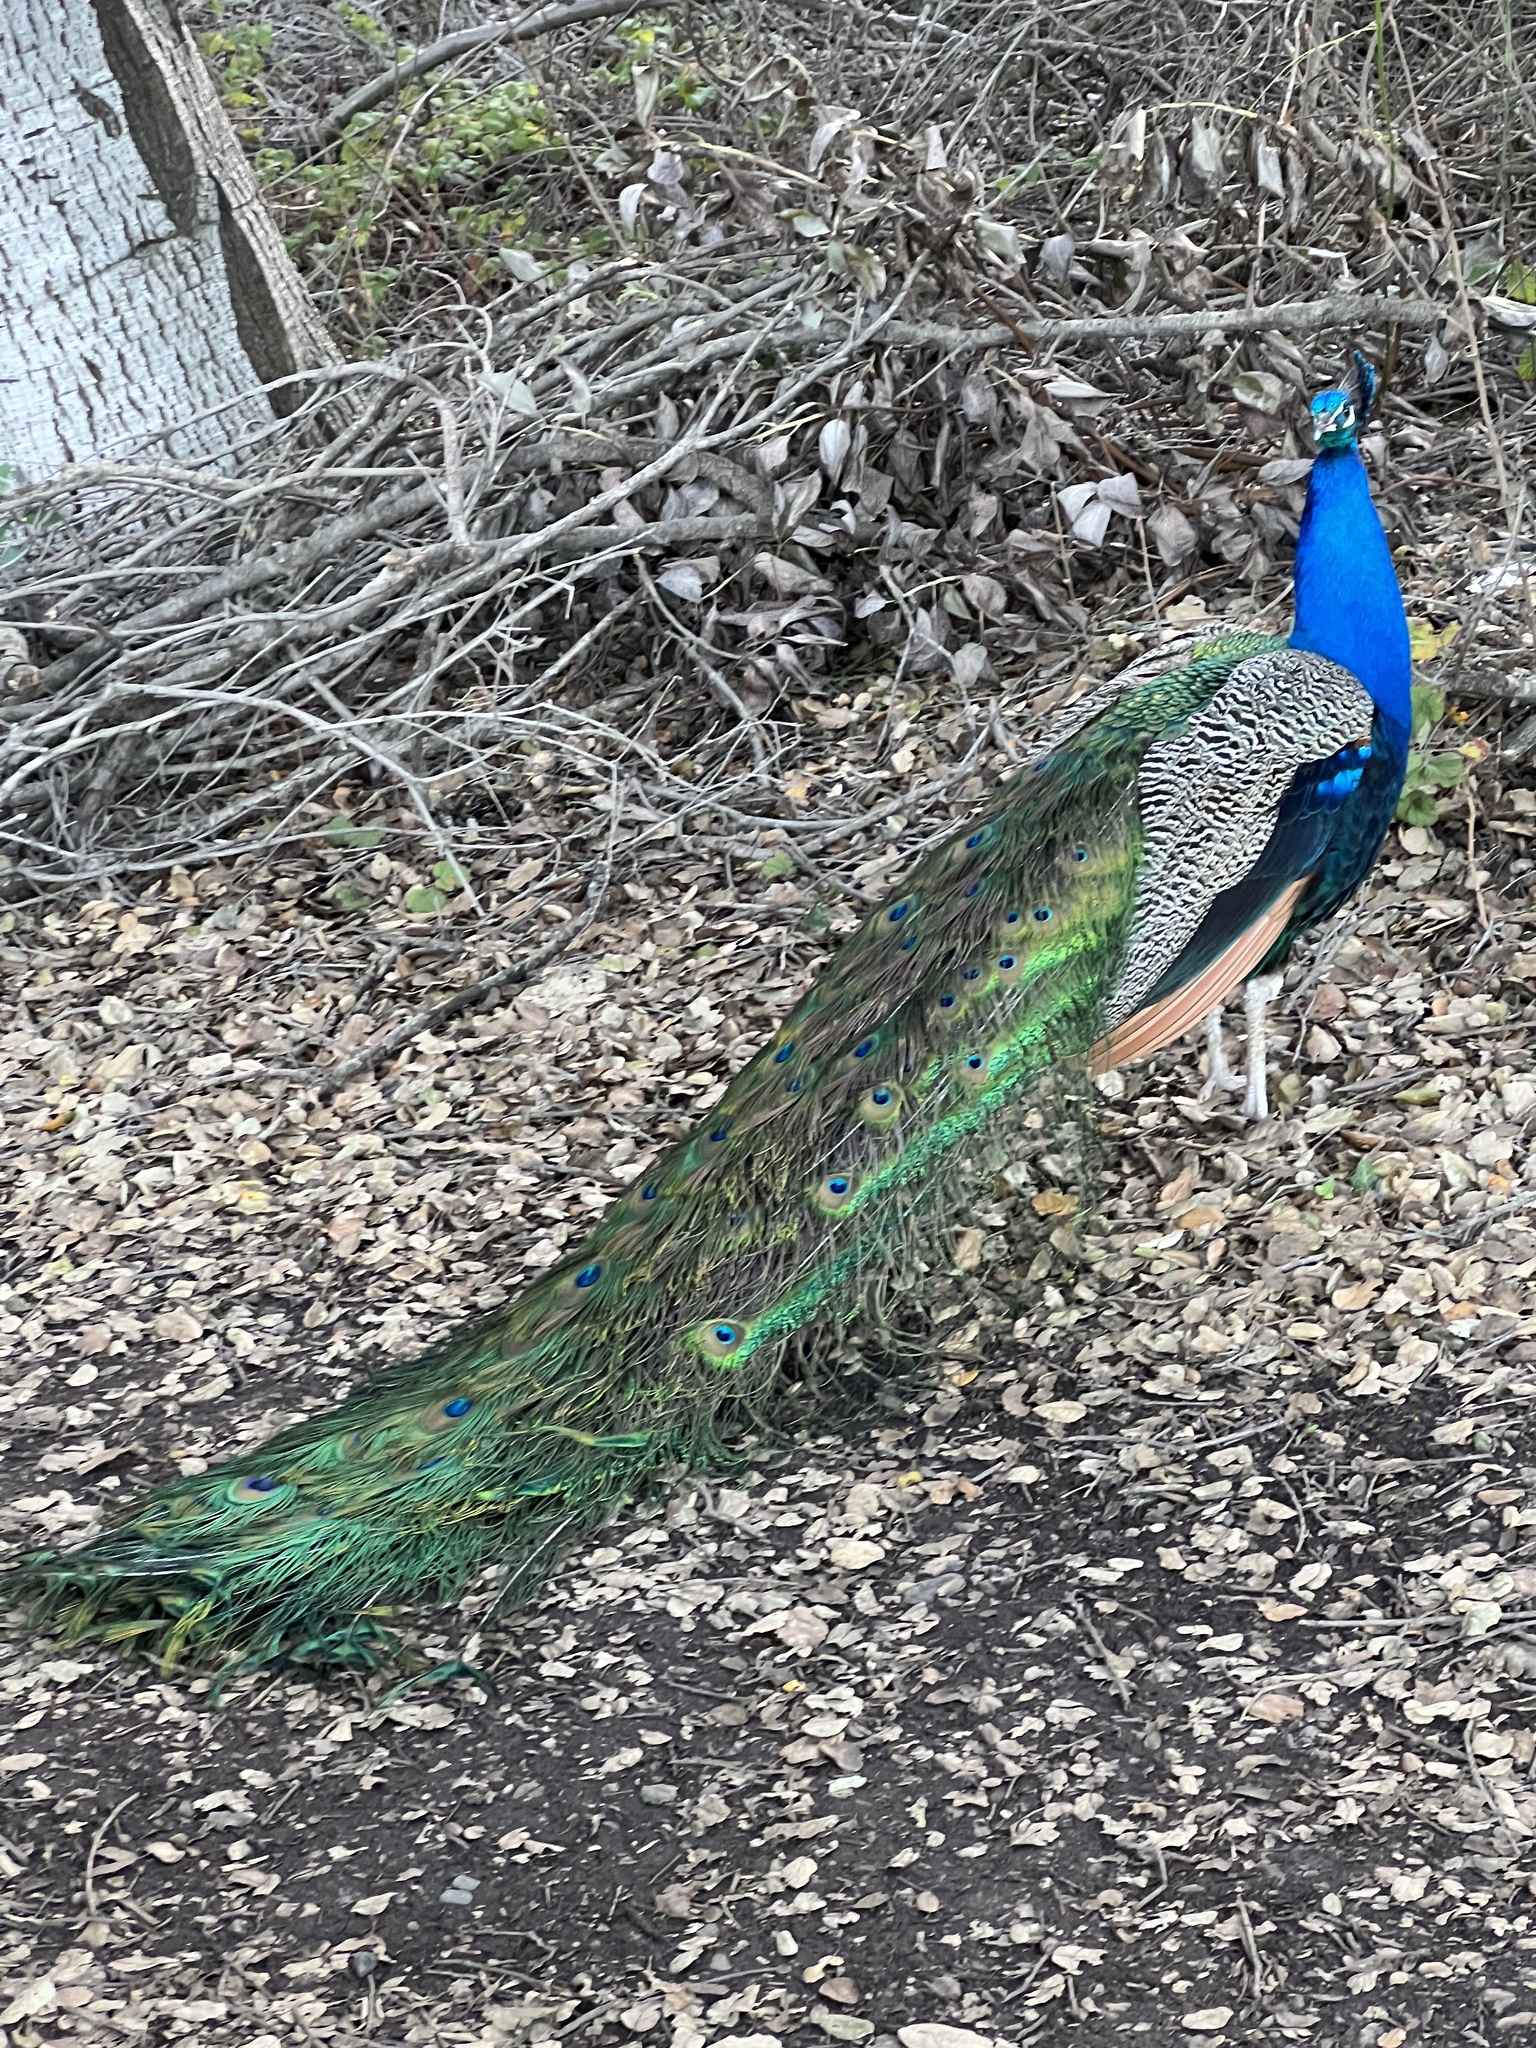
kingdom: Animalia
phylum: Chordata
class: Aves
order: Galliformes
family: Phasianidae
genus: Pavo
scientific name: Pavo cristatus
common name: Indian peafowl
